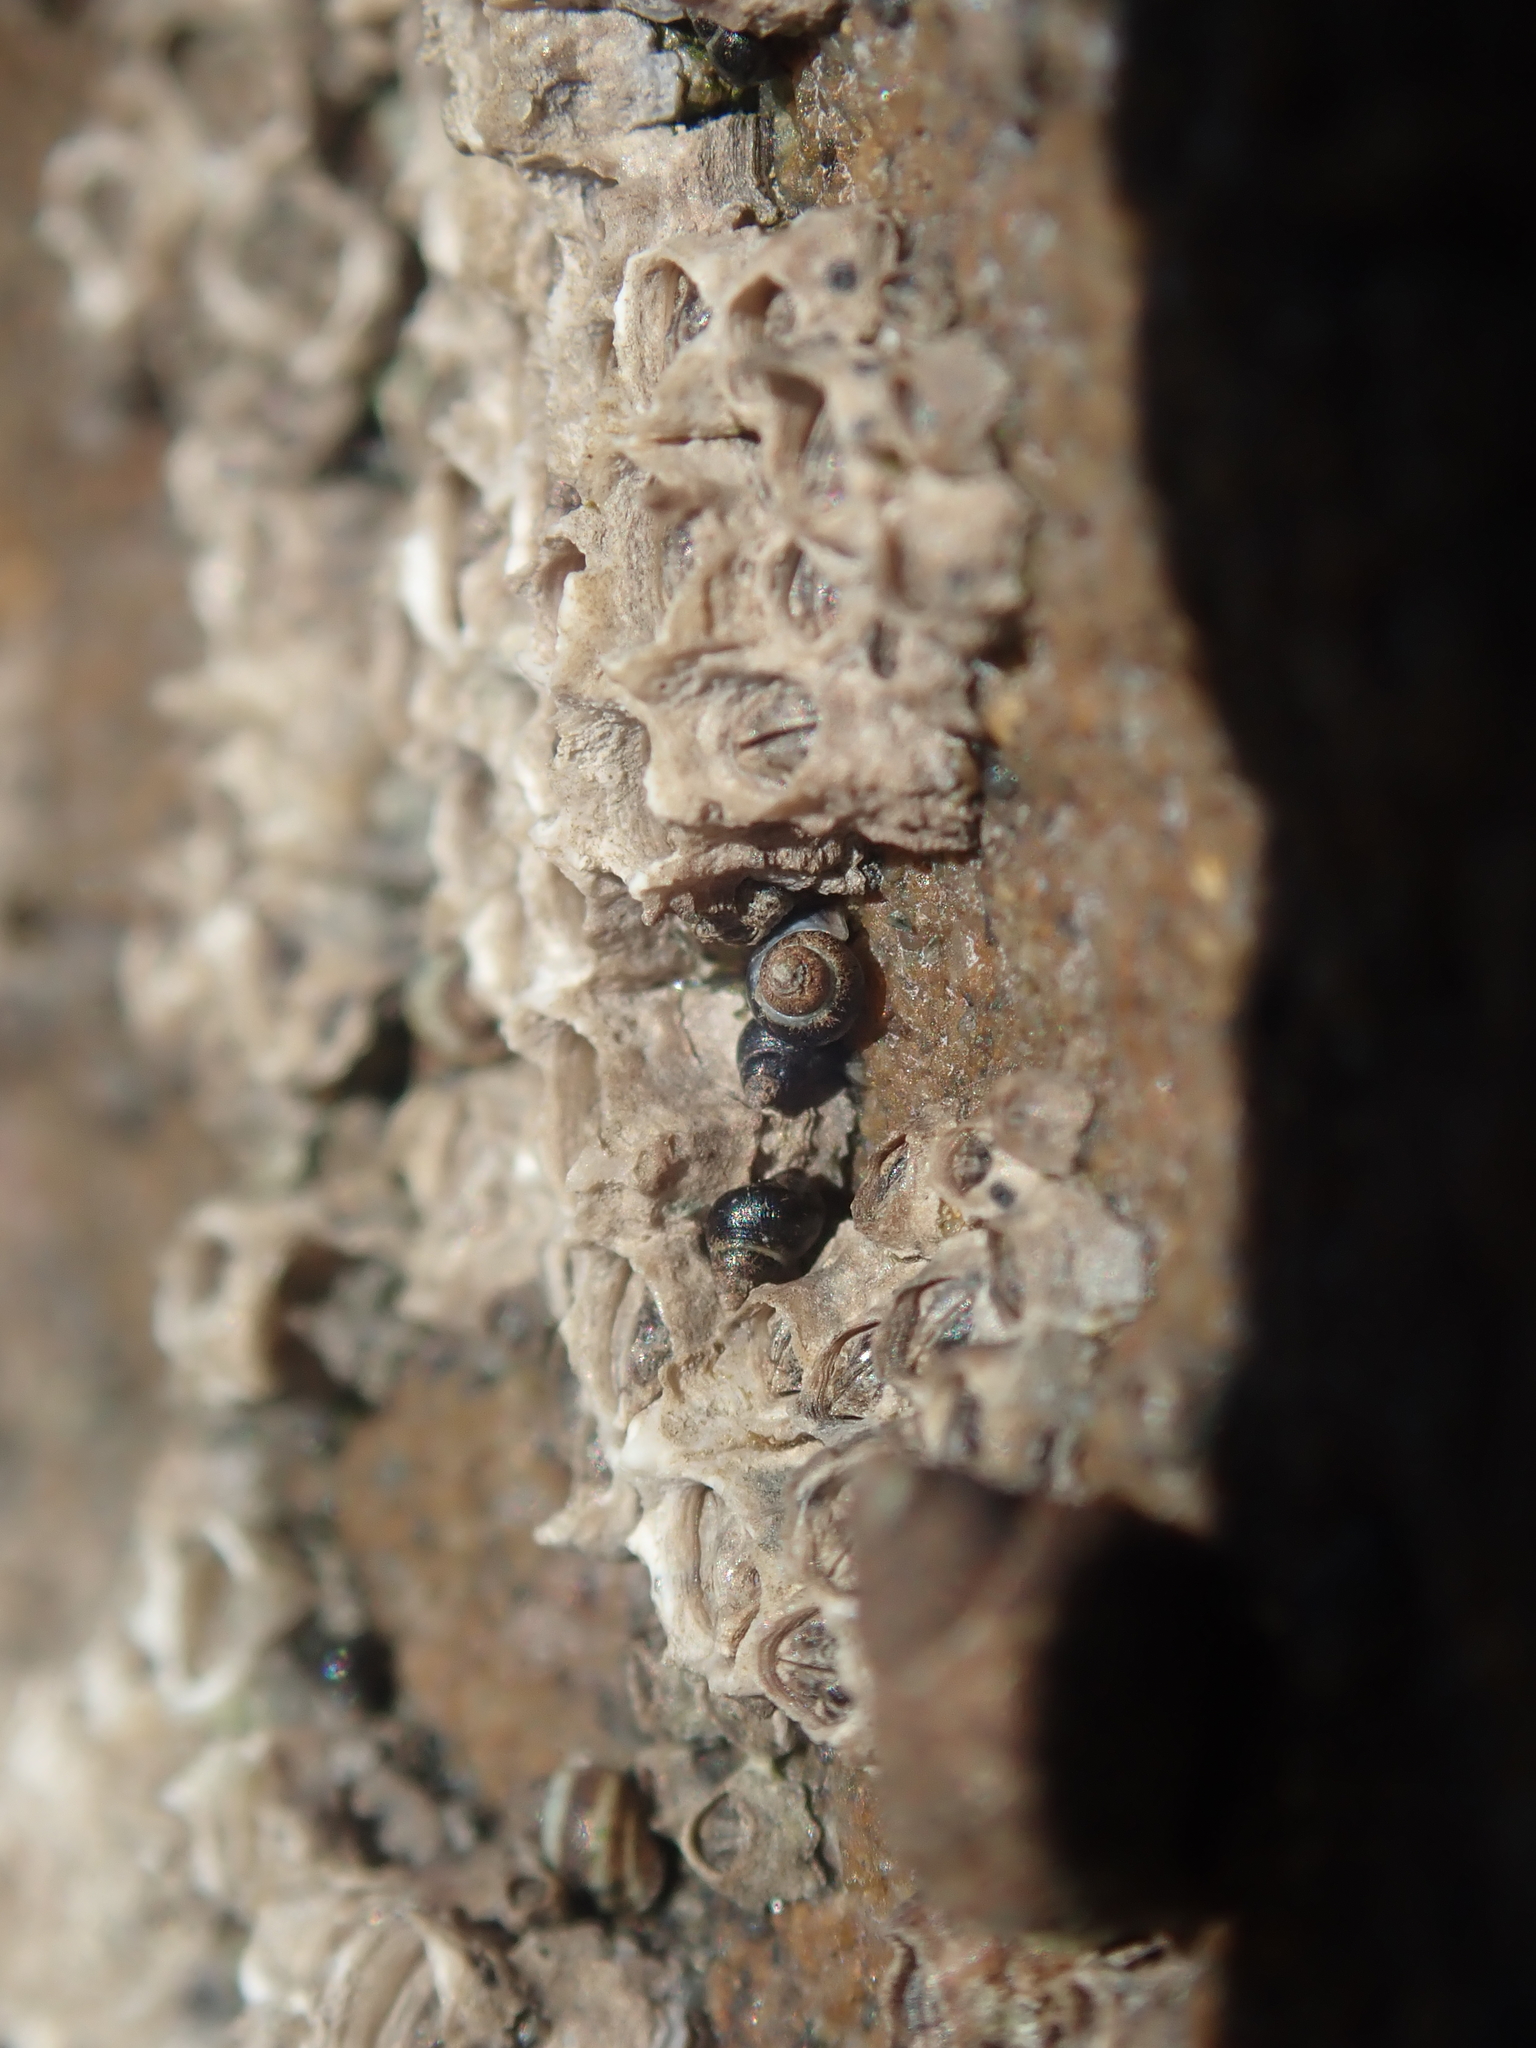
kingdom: Animalia
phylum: Mollusca
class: Gastropoda
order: Littorinimorpha
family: Littorinidae
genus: Austrolittorina
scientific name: Austrolittorina antipodum
